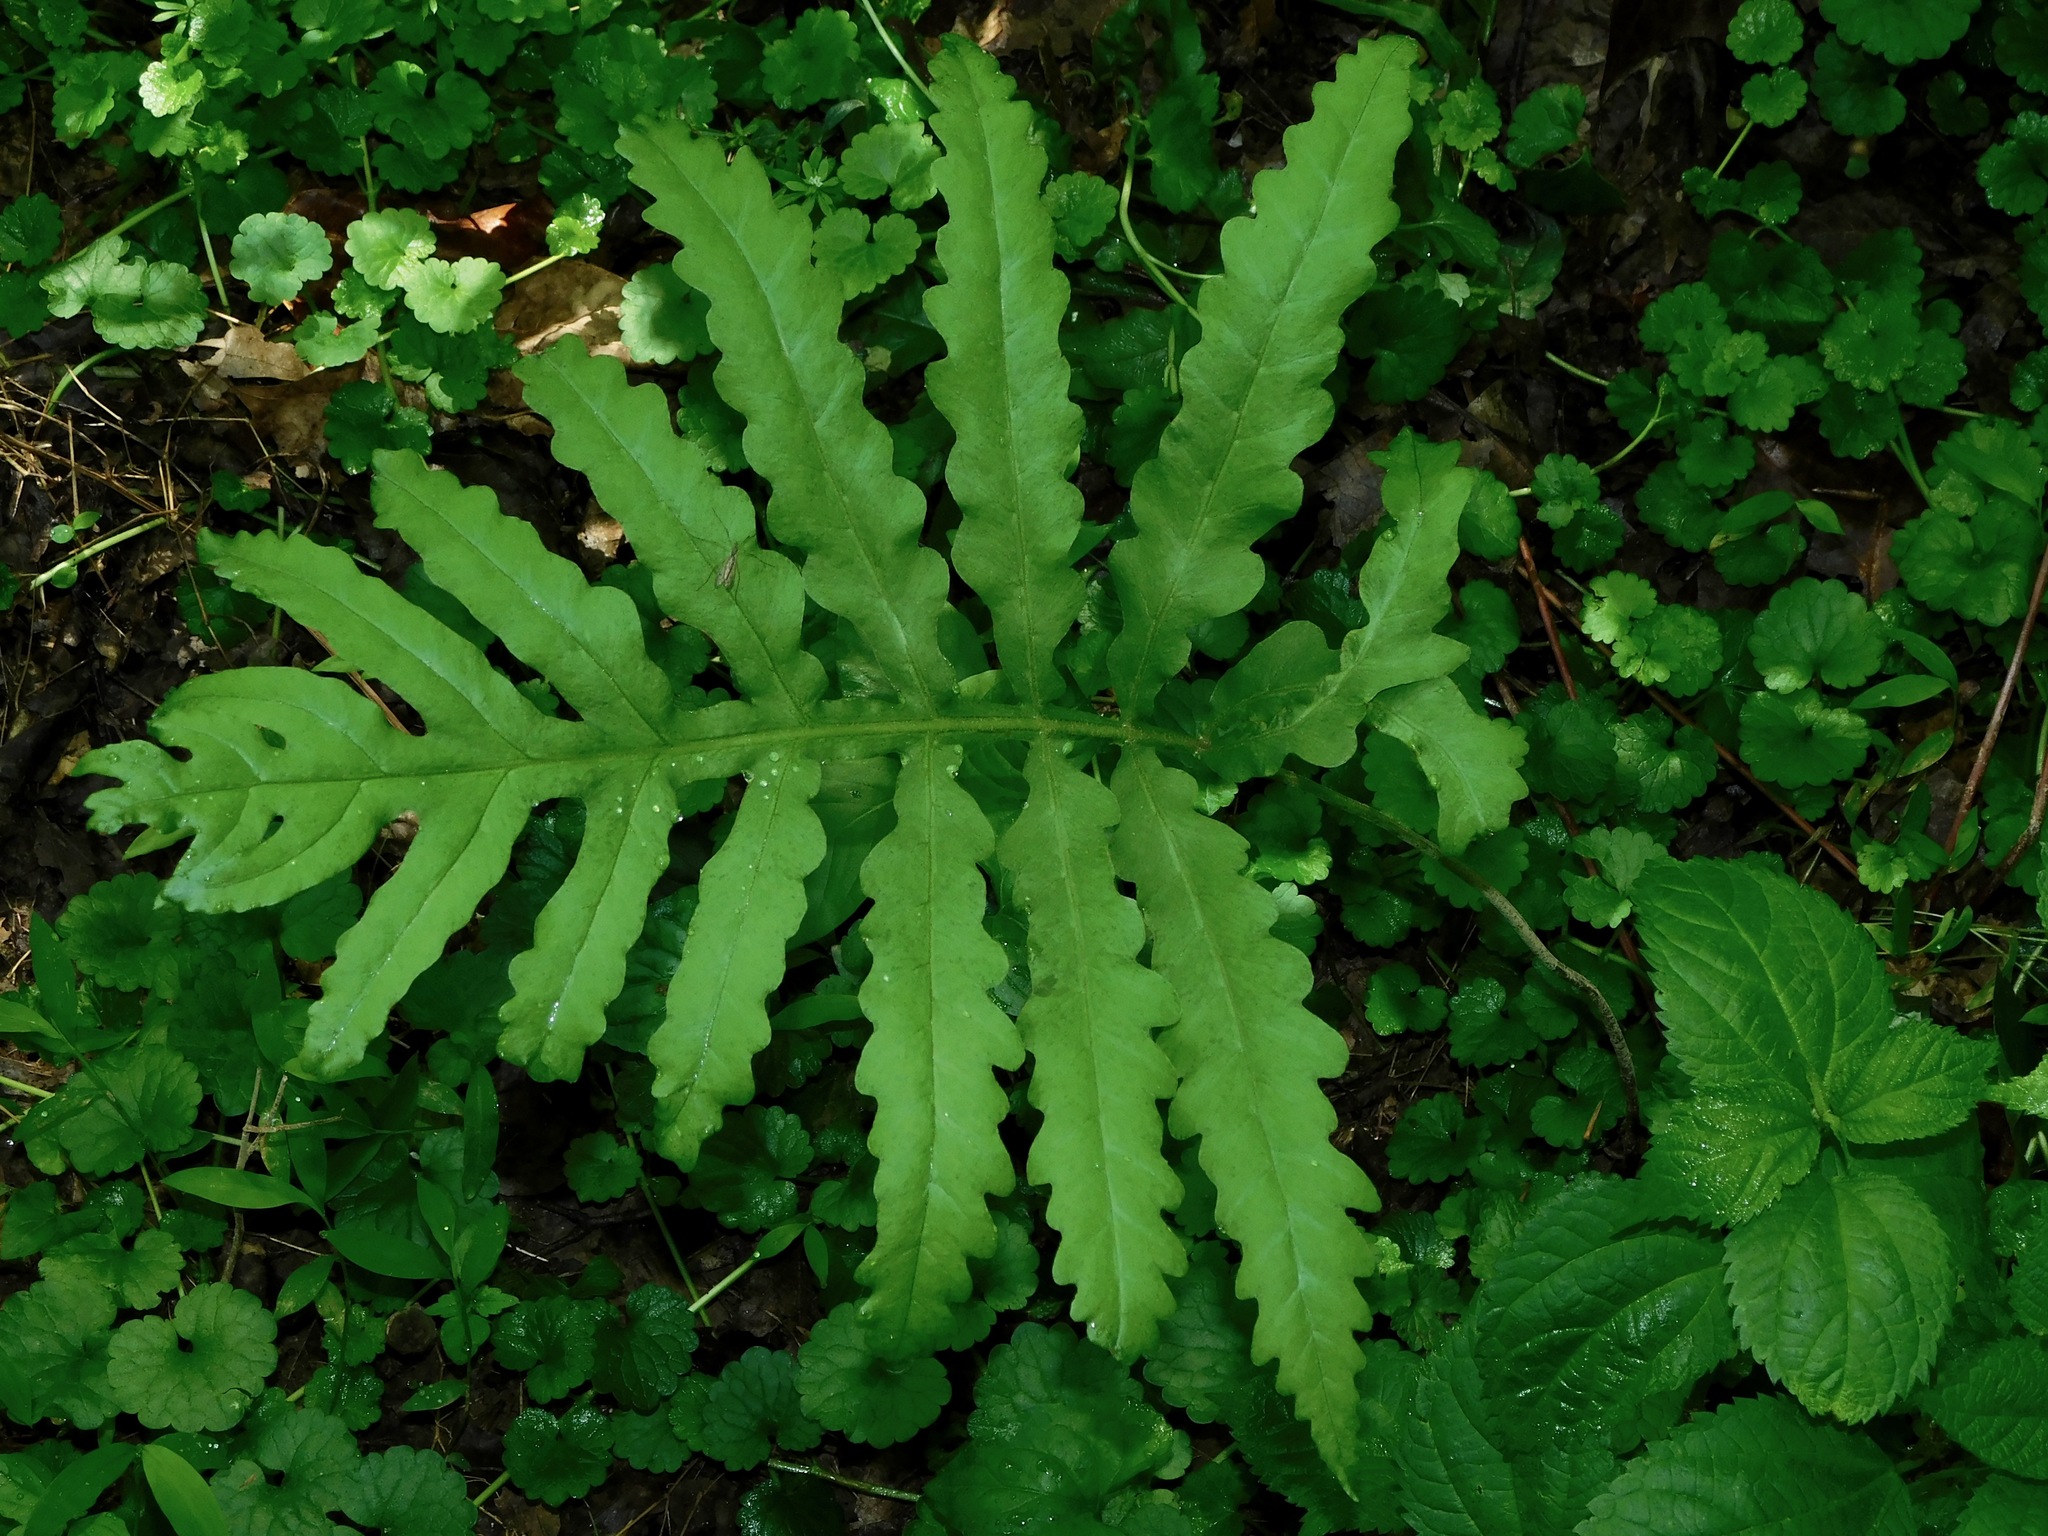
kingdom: Plantae
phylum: Tracheophyta
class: Polypodiopsida
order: Polypodiales
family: Onocleaceae
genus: Onoclea
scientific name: Onoclea sensibilis
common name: Sensitive fern
